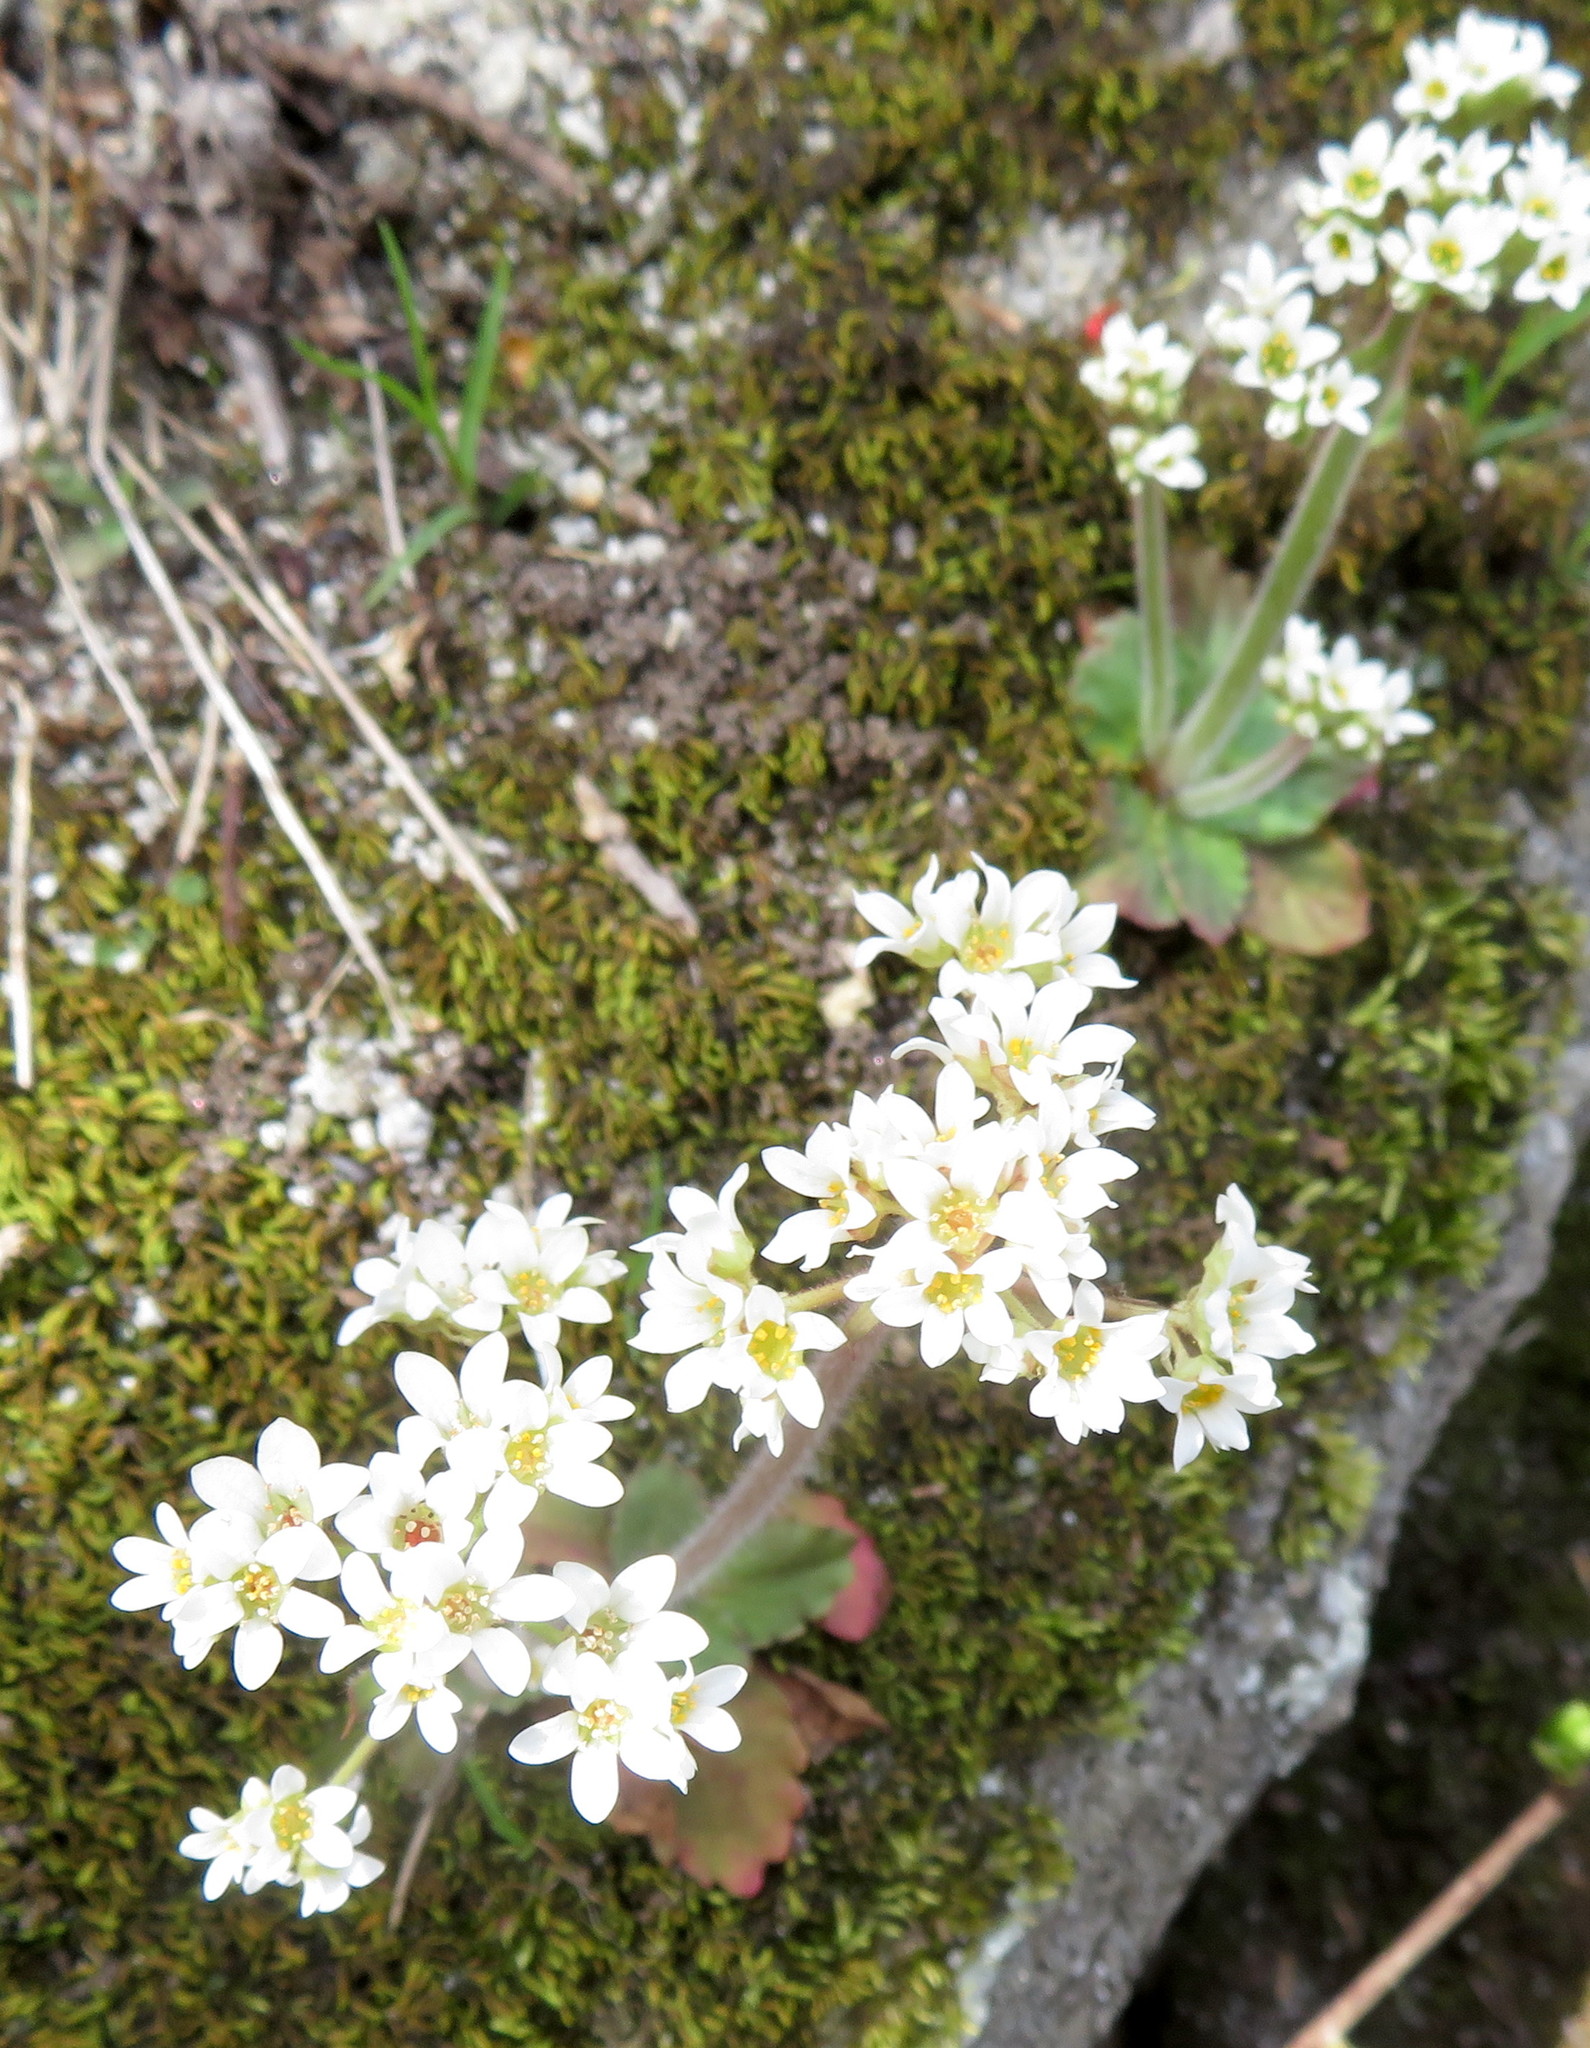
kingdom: Plantae
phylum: Tracheophyta
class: Magnoliopsida
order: Saxifragales
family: Saxifragaceae
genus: Micranthes
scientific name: Micranthes virginiensis
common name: Early saxifrage
